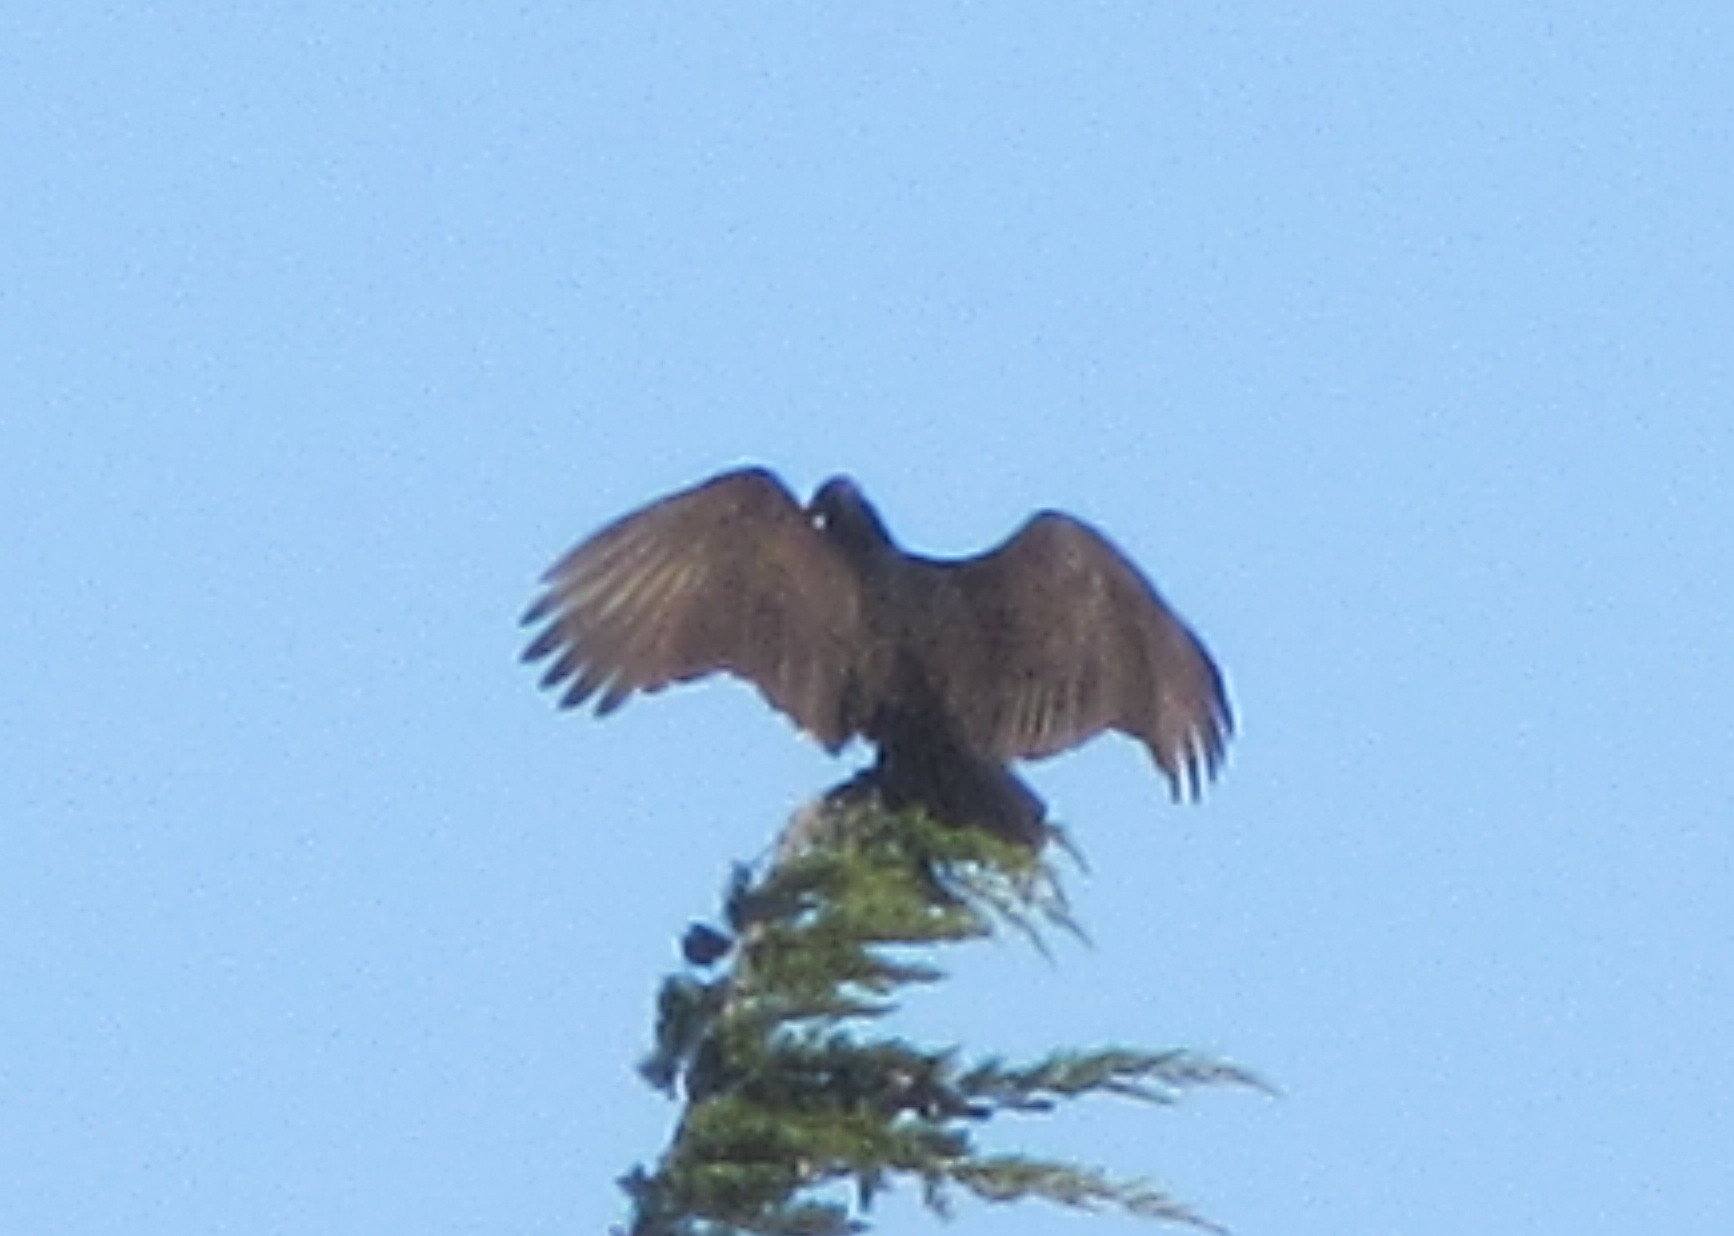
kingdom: Animalia
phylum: Chordata
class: Aves
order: Accipitriformes
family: Cathartidae
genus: Cathartes
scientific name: Cathartes aura
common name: Turkey vulture
